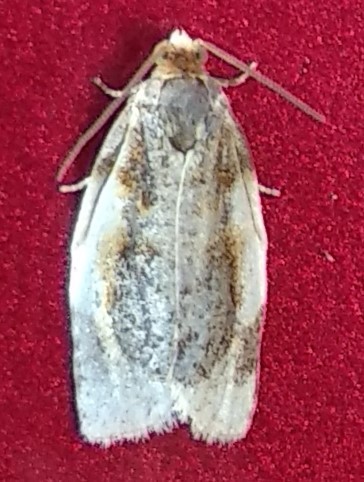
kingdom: Animalia
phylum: Arthropoda
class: Insecta
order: Lepidoptera
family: Tortricidae
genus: Clepsis
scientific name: Clepsis melaleucanus
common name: American apple tortrix
